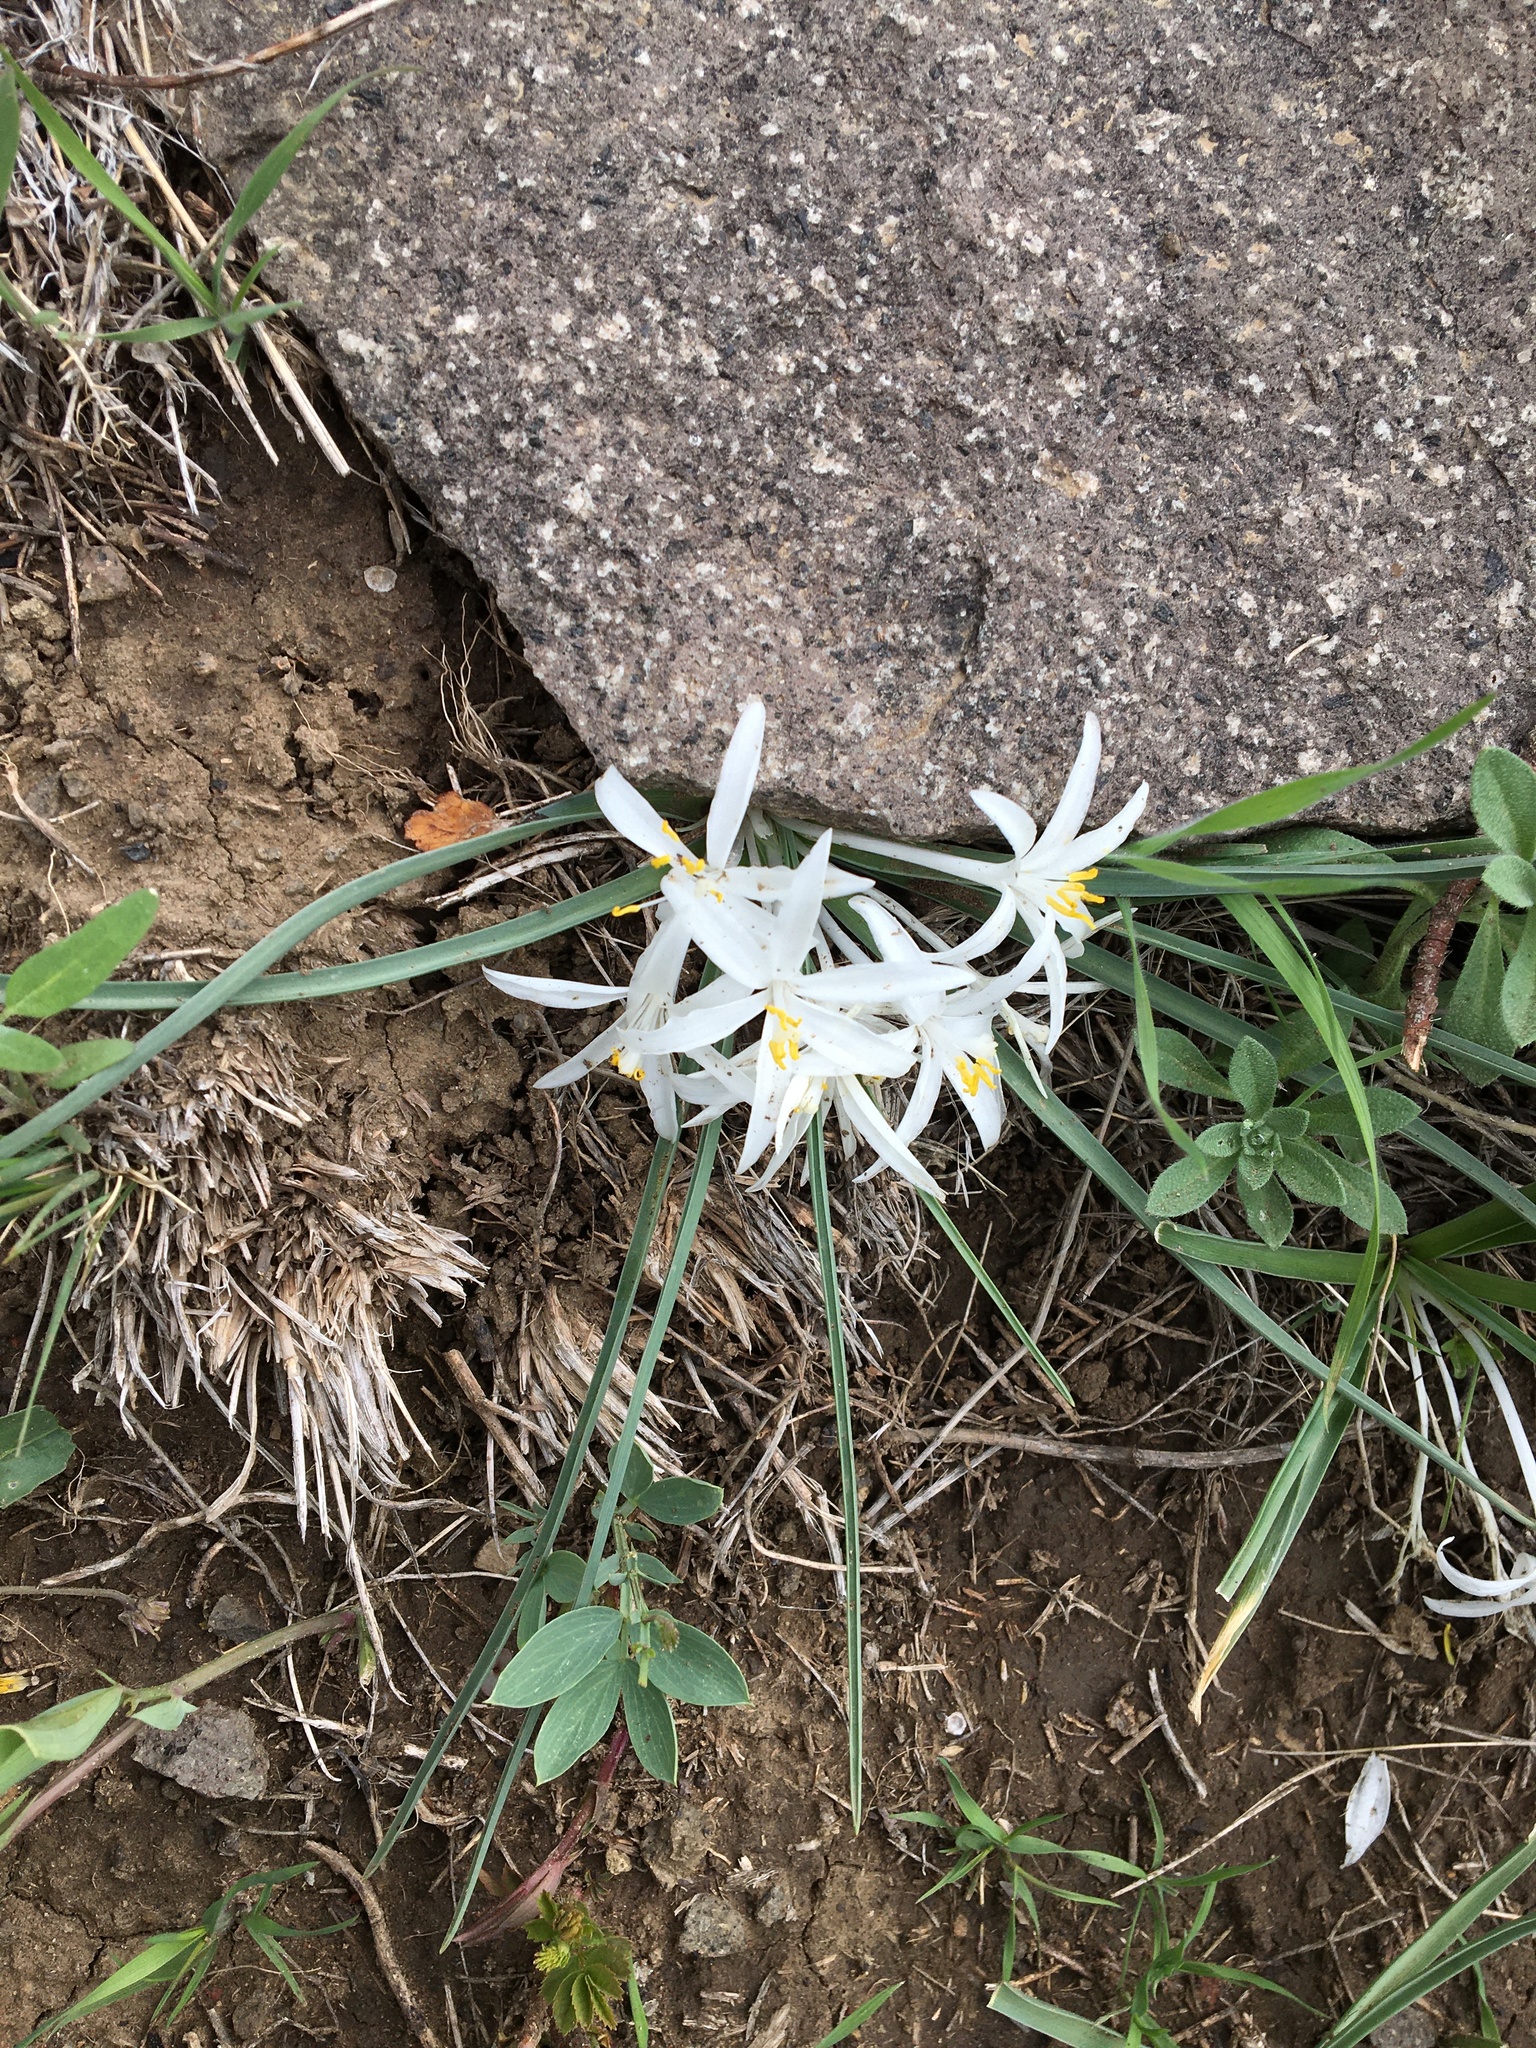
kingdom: Plantae
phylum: Tracheophyta
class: Liliopsida
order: Asparagales
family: Asparagaceae
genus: Leucocrinum
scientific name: Leucocrinum montanum
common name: Mountain-lily
